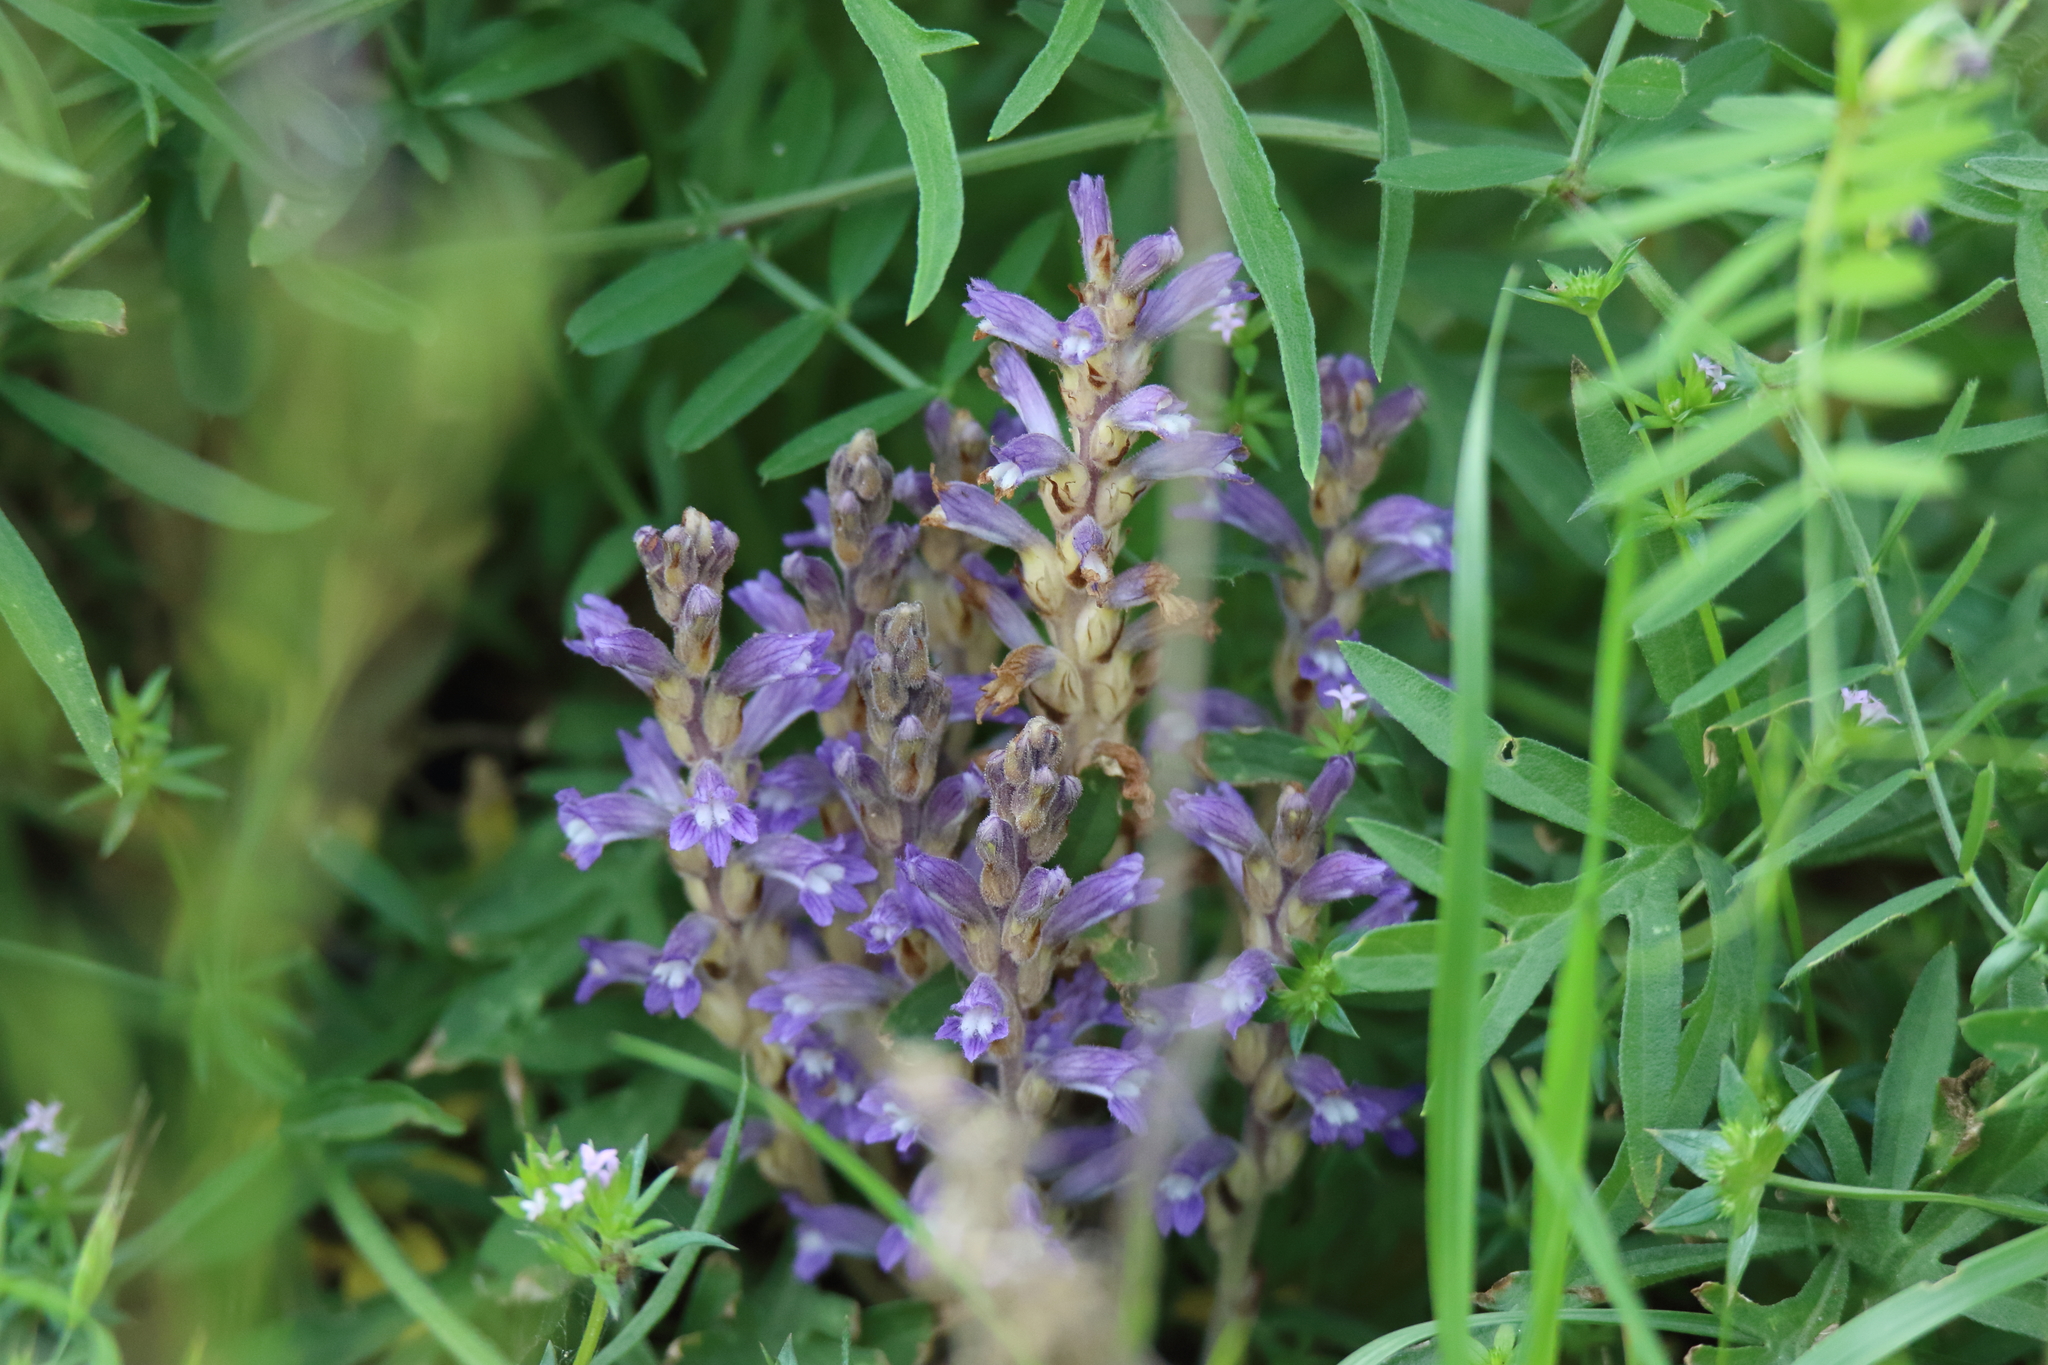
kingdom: Plantae
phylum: Tracheophyta
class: Magnoliopsida
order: Lamiales
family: Orobanchaceae
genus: Phelipanche
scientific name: Phelipanche ramosa
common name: Branched broomrape
